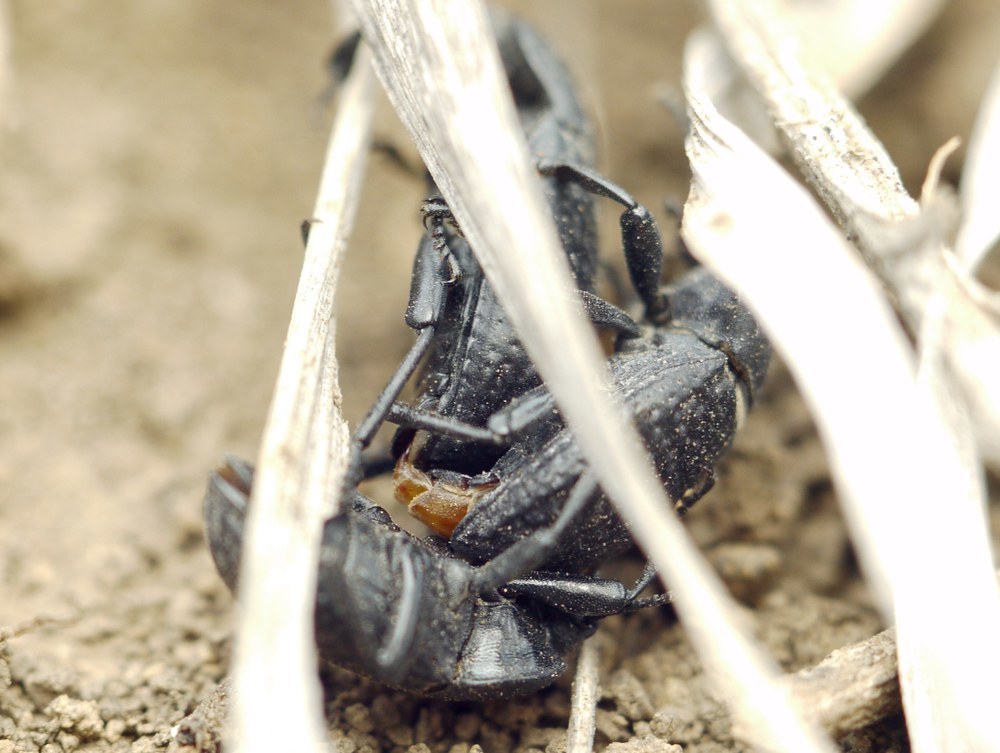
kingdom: Animalia
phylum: Arthropoda
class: Insecta
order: Coleoptera
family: Tenebrionidae
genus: Dendarus
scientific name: Dendarus punctatus
